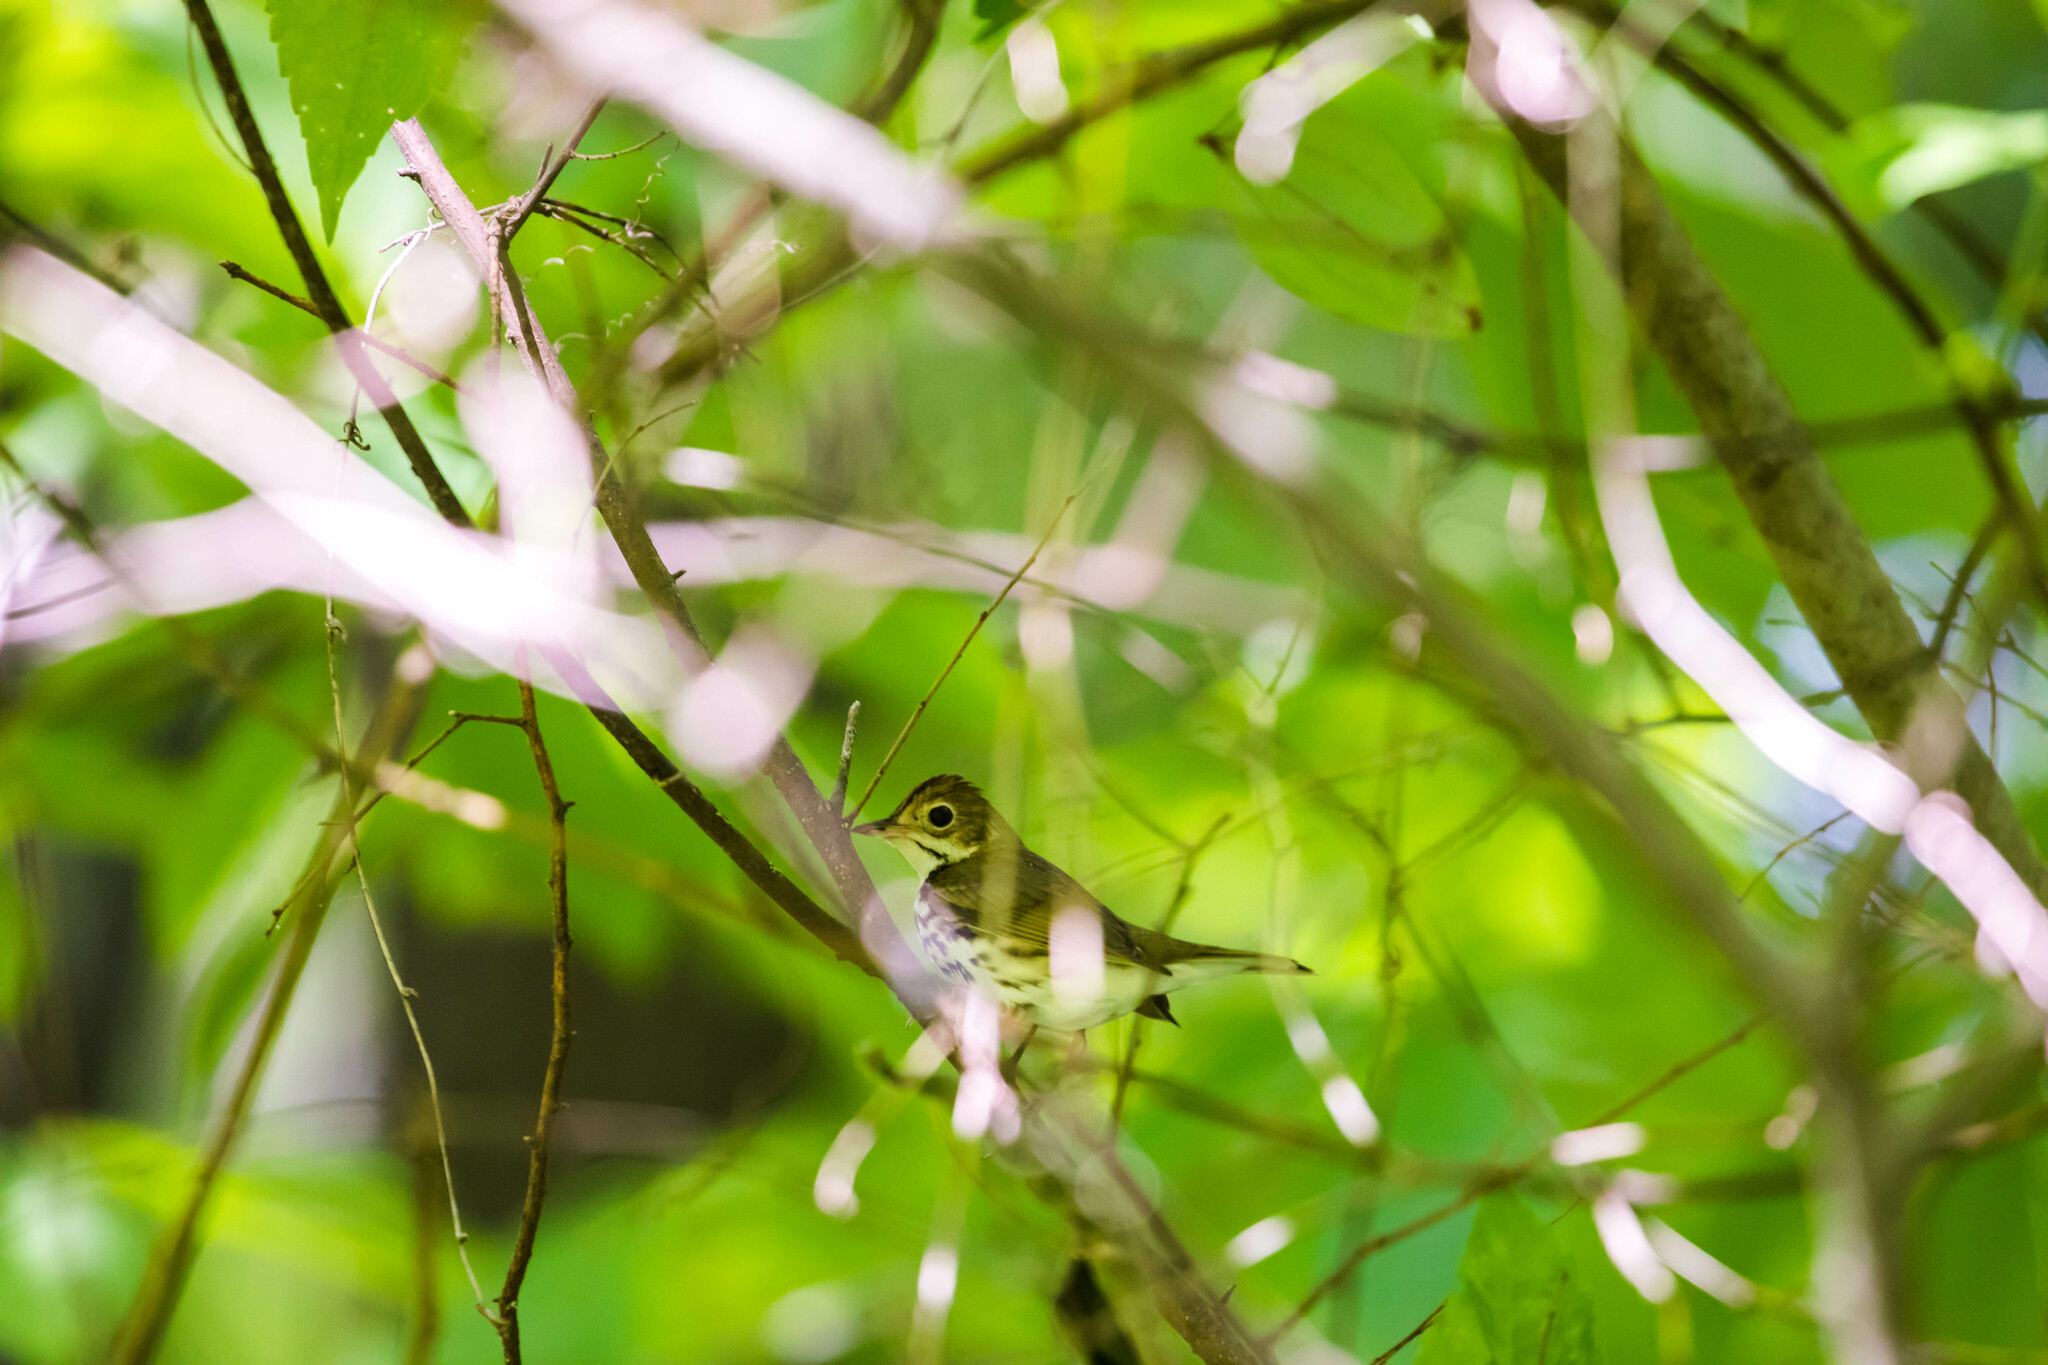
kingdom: Animalia
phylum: Chordata
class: Aves
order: Passeriformes
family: Parulidae
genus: Seiurus
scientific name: Seiurus aurocapilla
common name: Ovenbird
